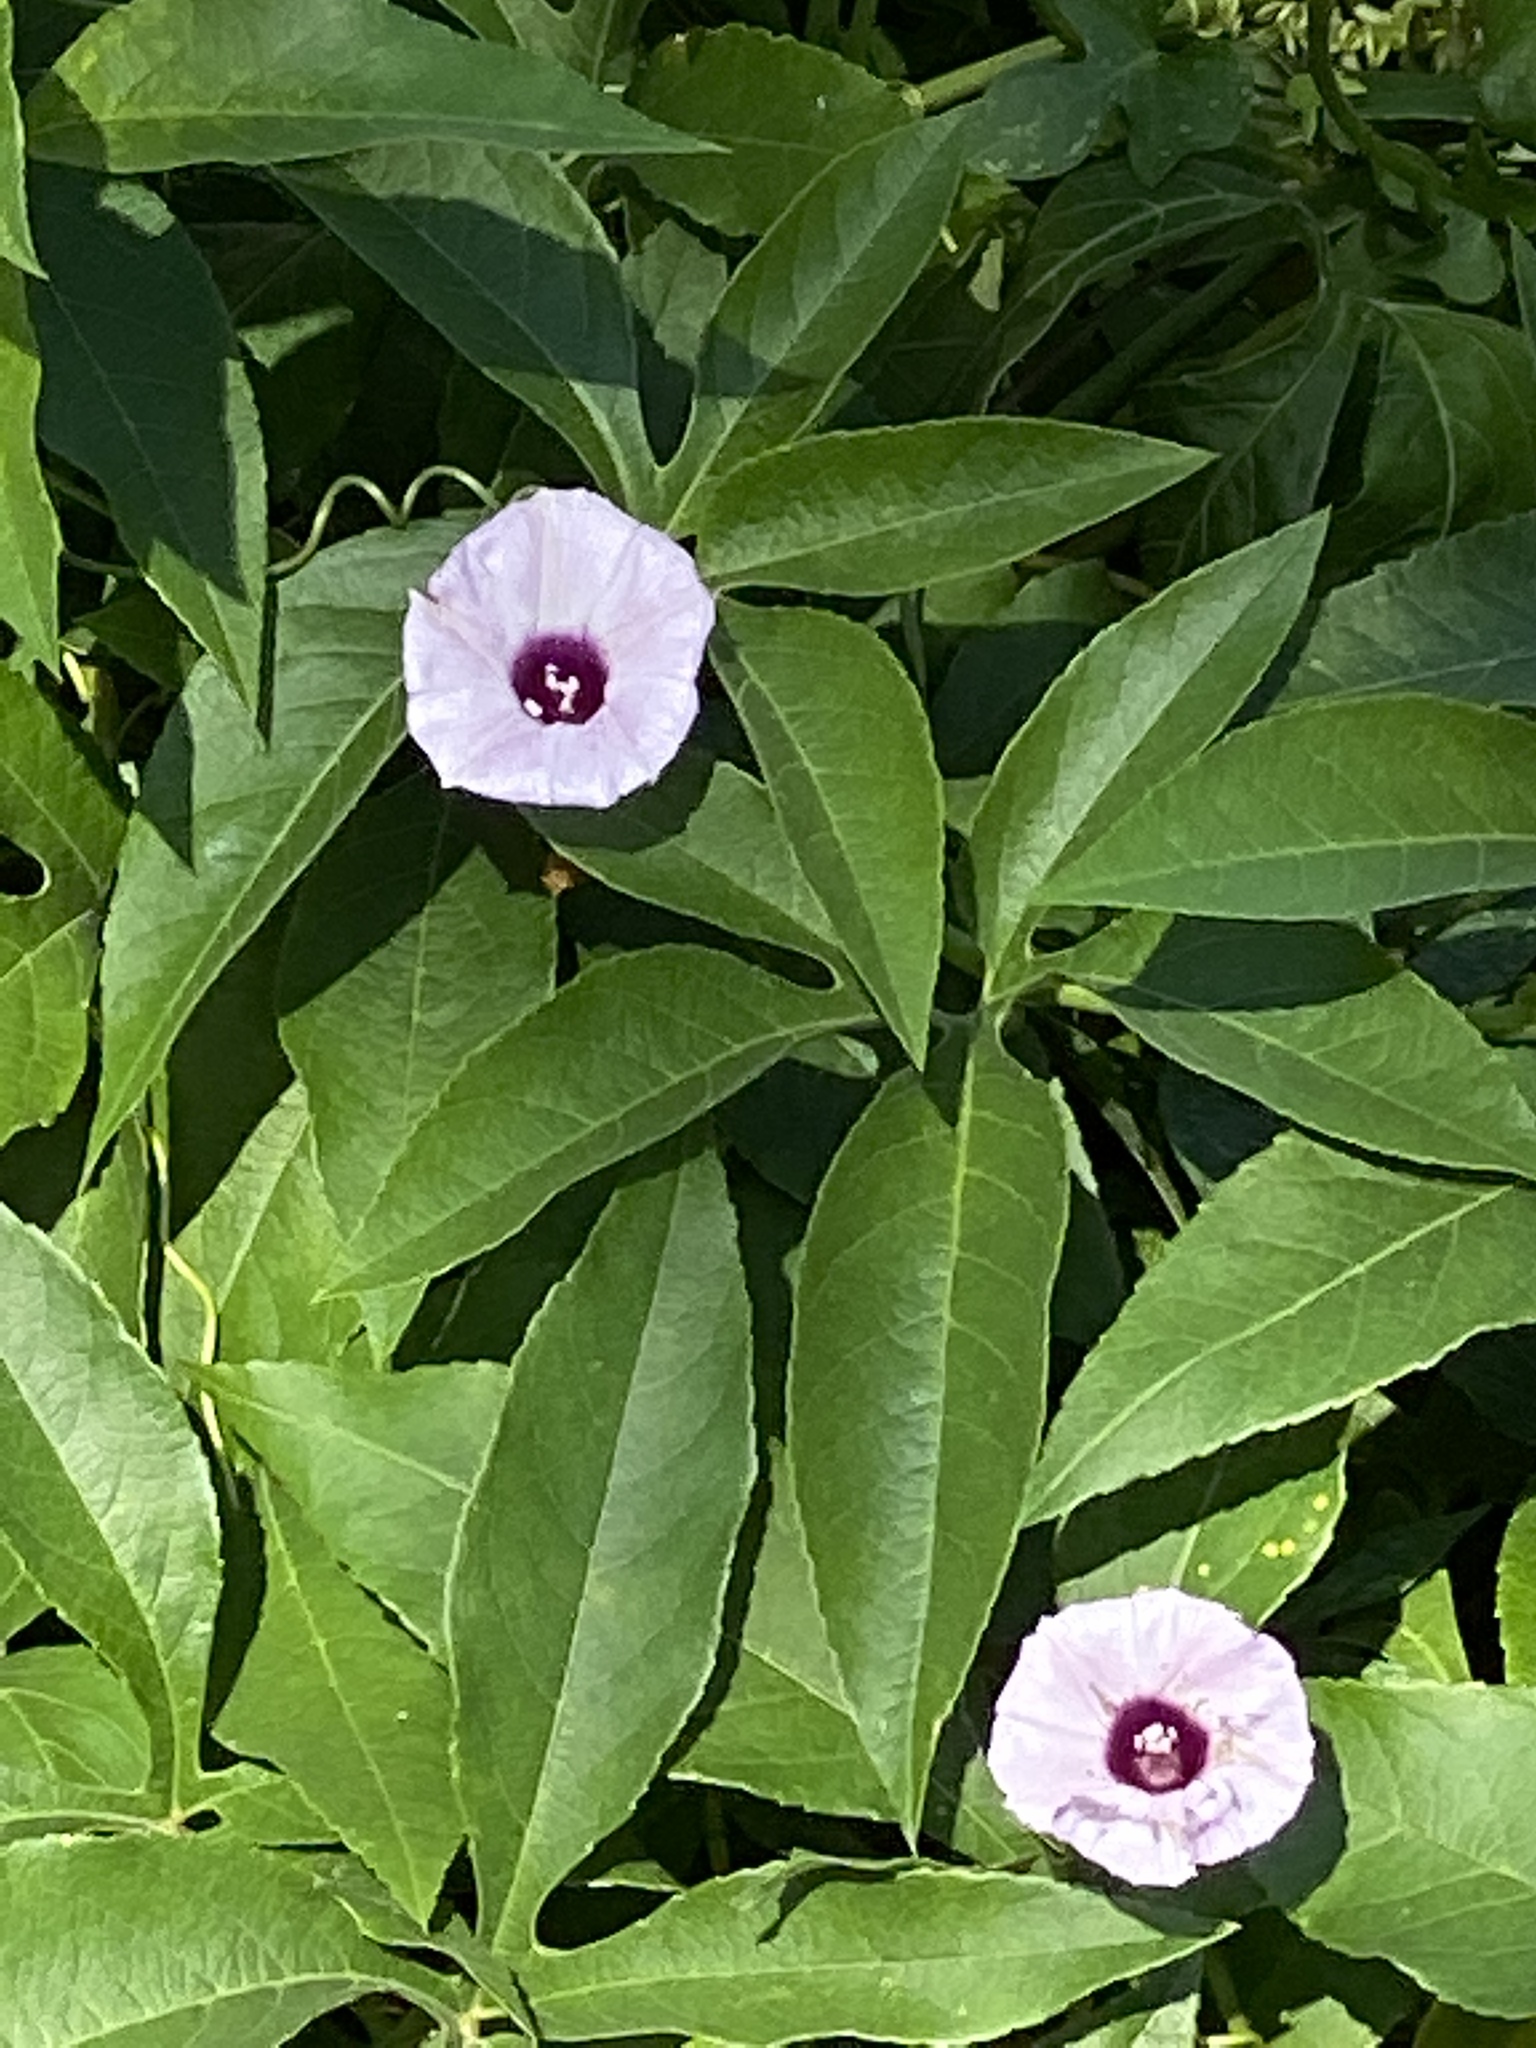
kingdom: Plantae
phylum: Tracheophyta
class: Magnoliopsida
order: Solanales
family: Convolvulaceae
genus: Ipomoea
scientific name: Ipomoea cordatotriloba
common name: Cotton morning glory
